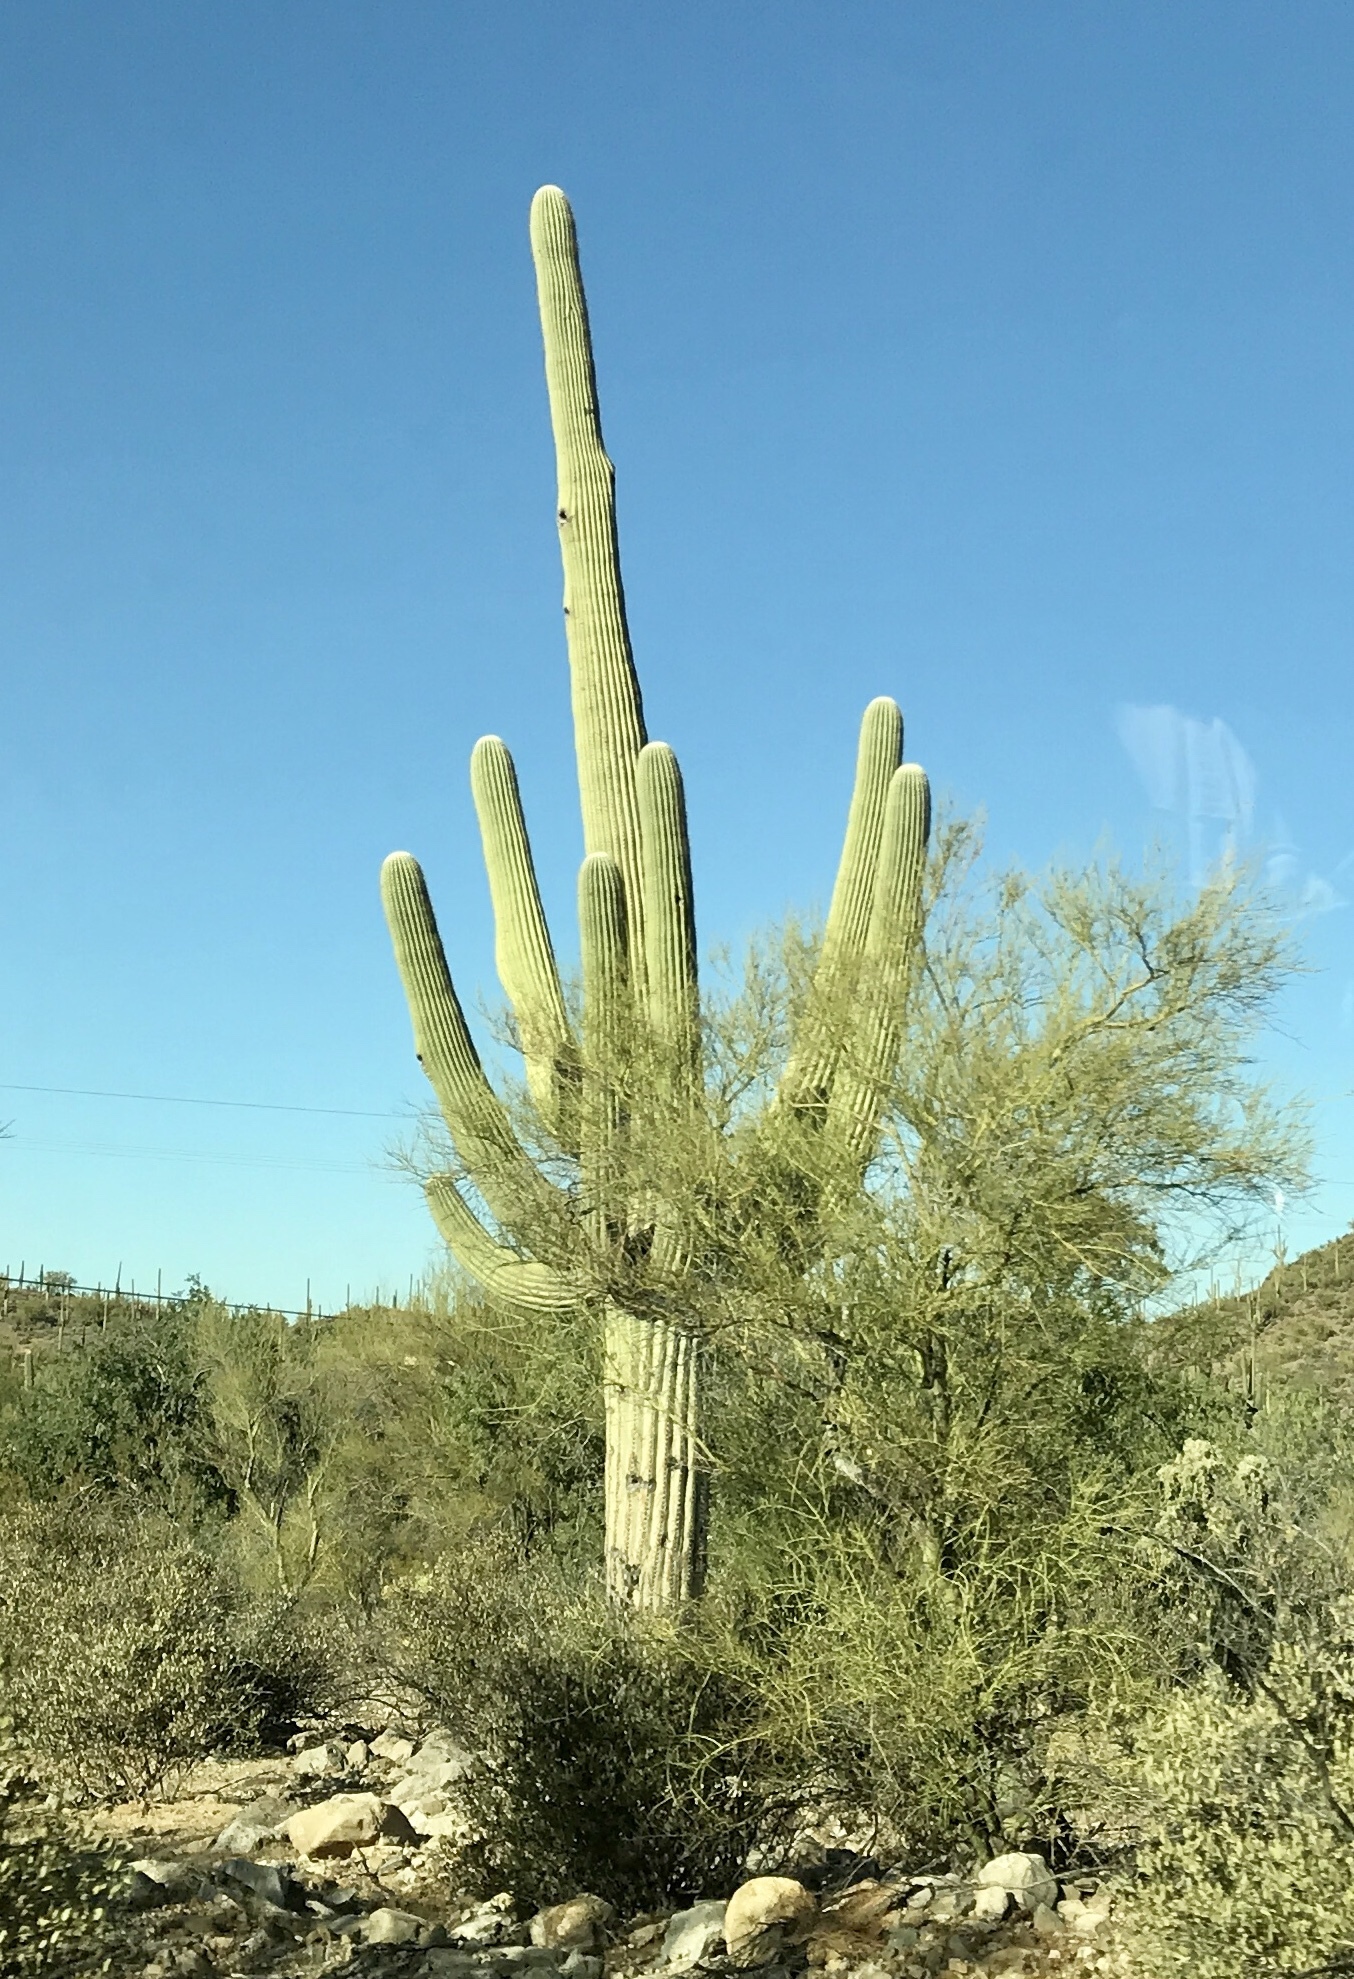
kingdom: Plantae
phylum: Tracheophyta
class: Magnoliopsida
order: Caryophyllales
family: Cactaceae
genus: Carnegiea
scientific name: Carnegiea gigantea
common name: Saguaro
